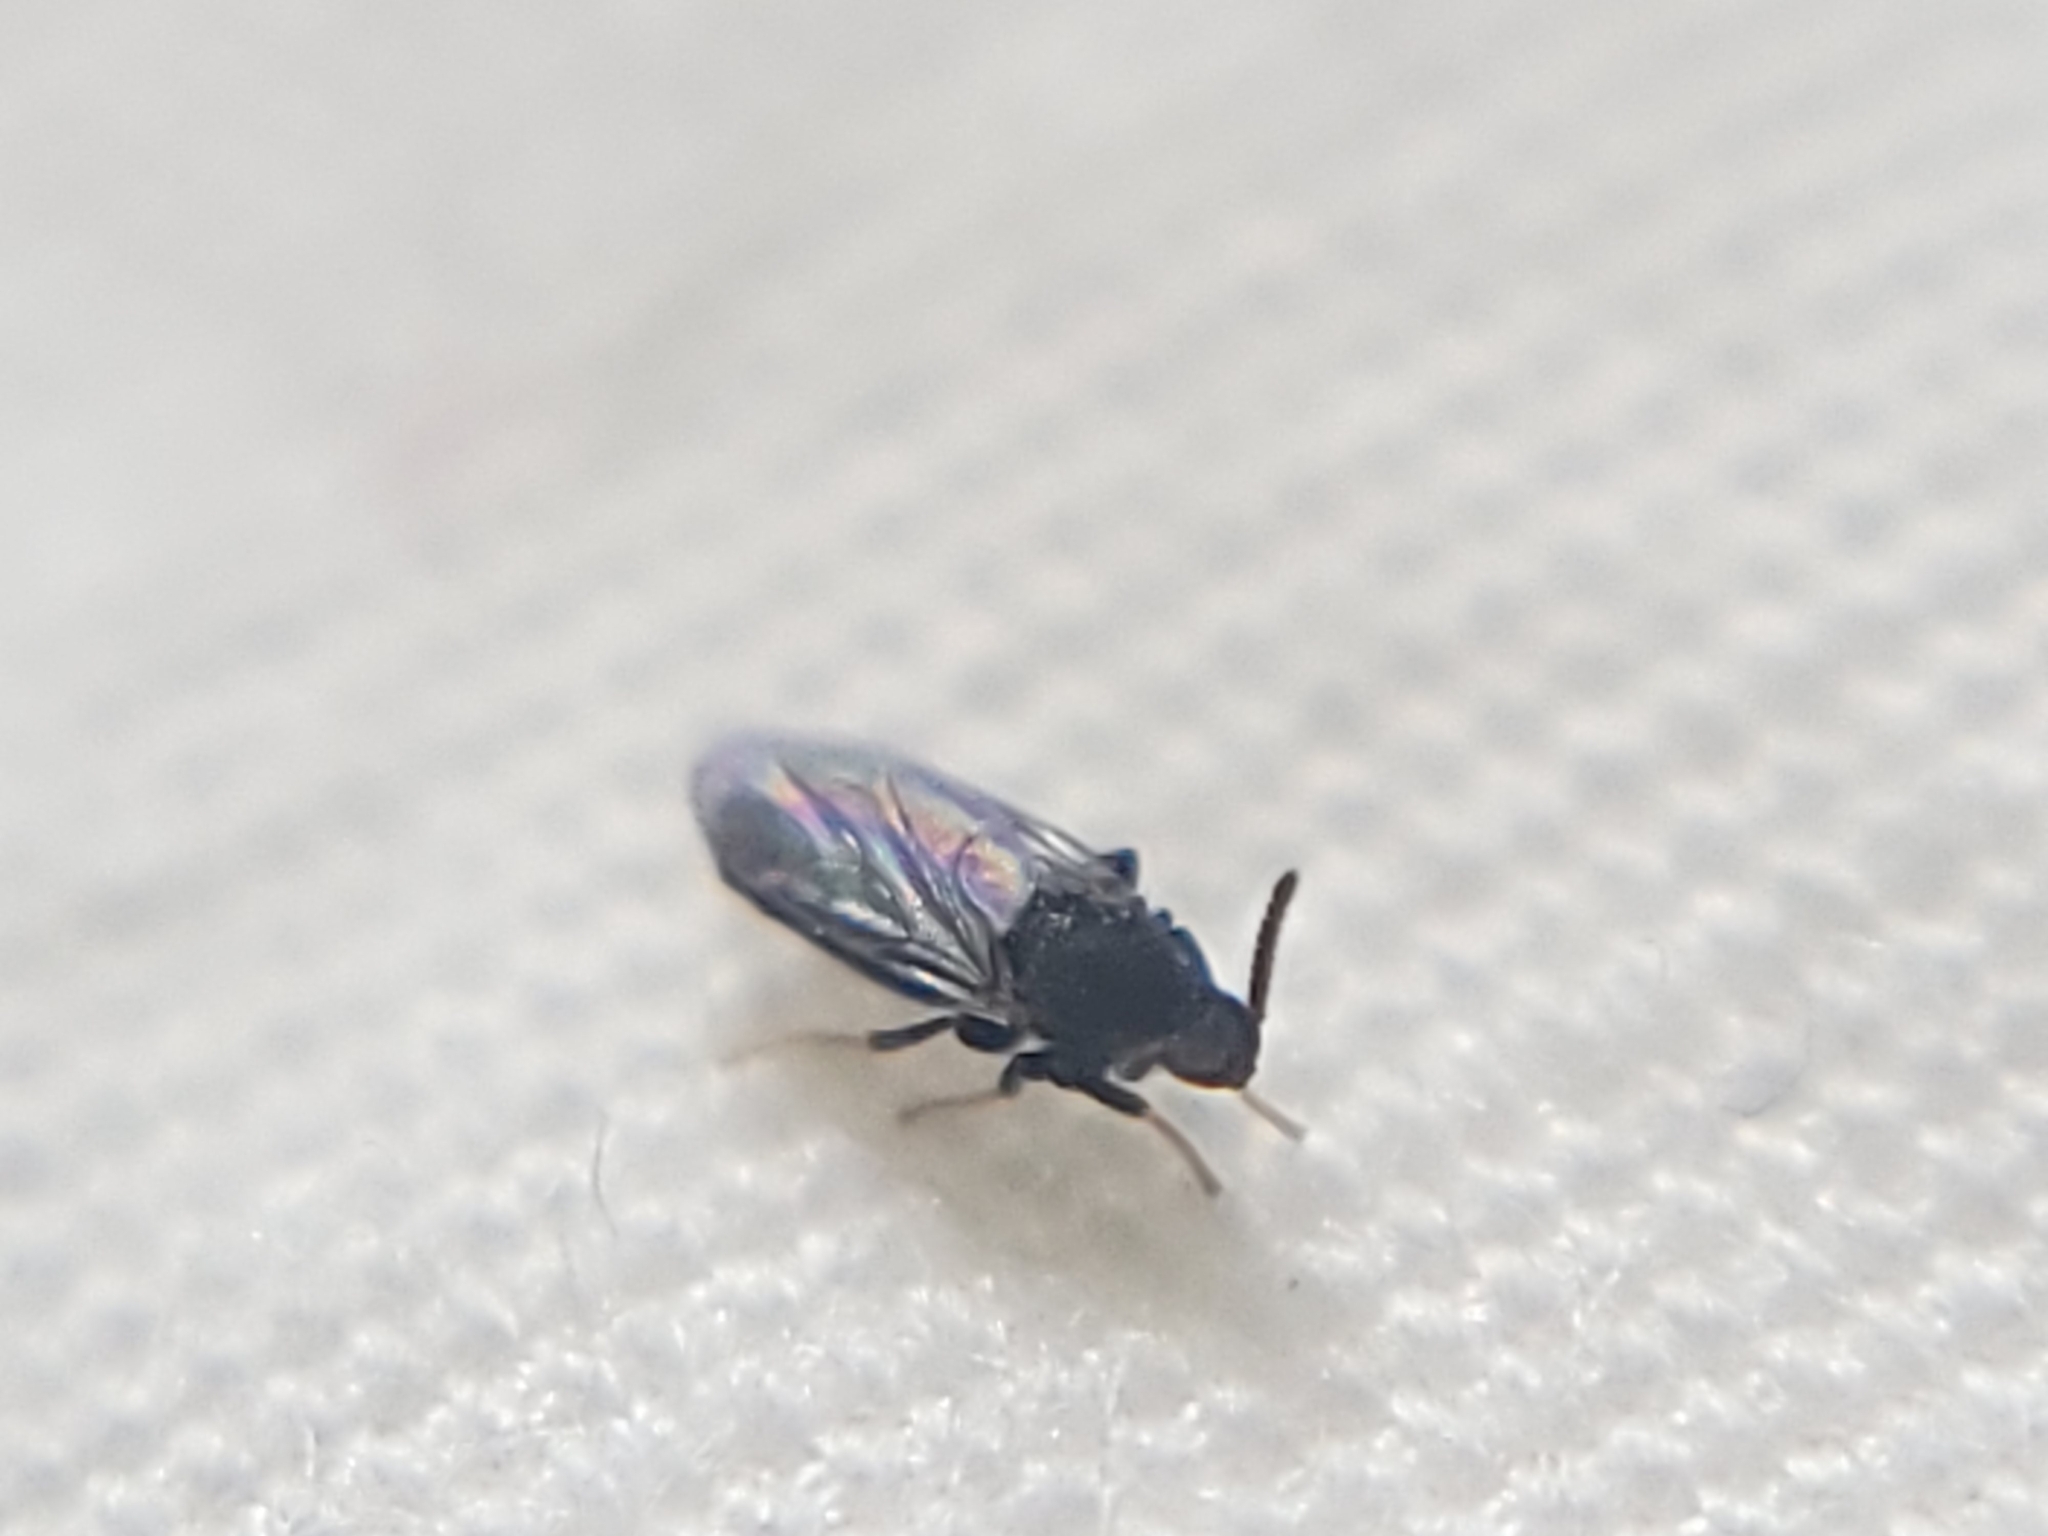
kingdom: Animalia
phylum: Arthropoda
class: Insecta
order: Diptera
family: Scatopsidae
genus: Holoplagia
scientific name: Holoplagia guamensis
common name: Fly
